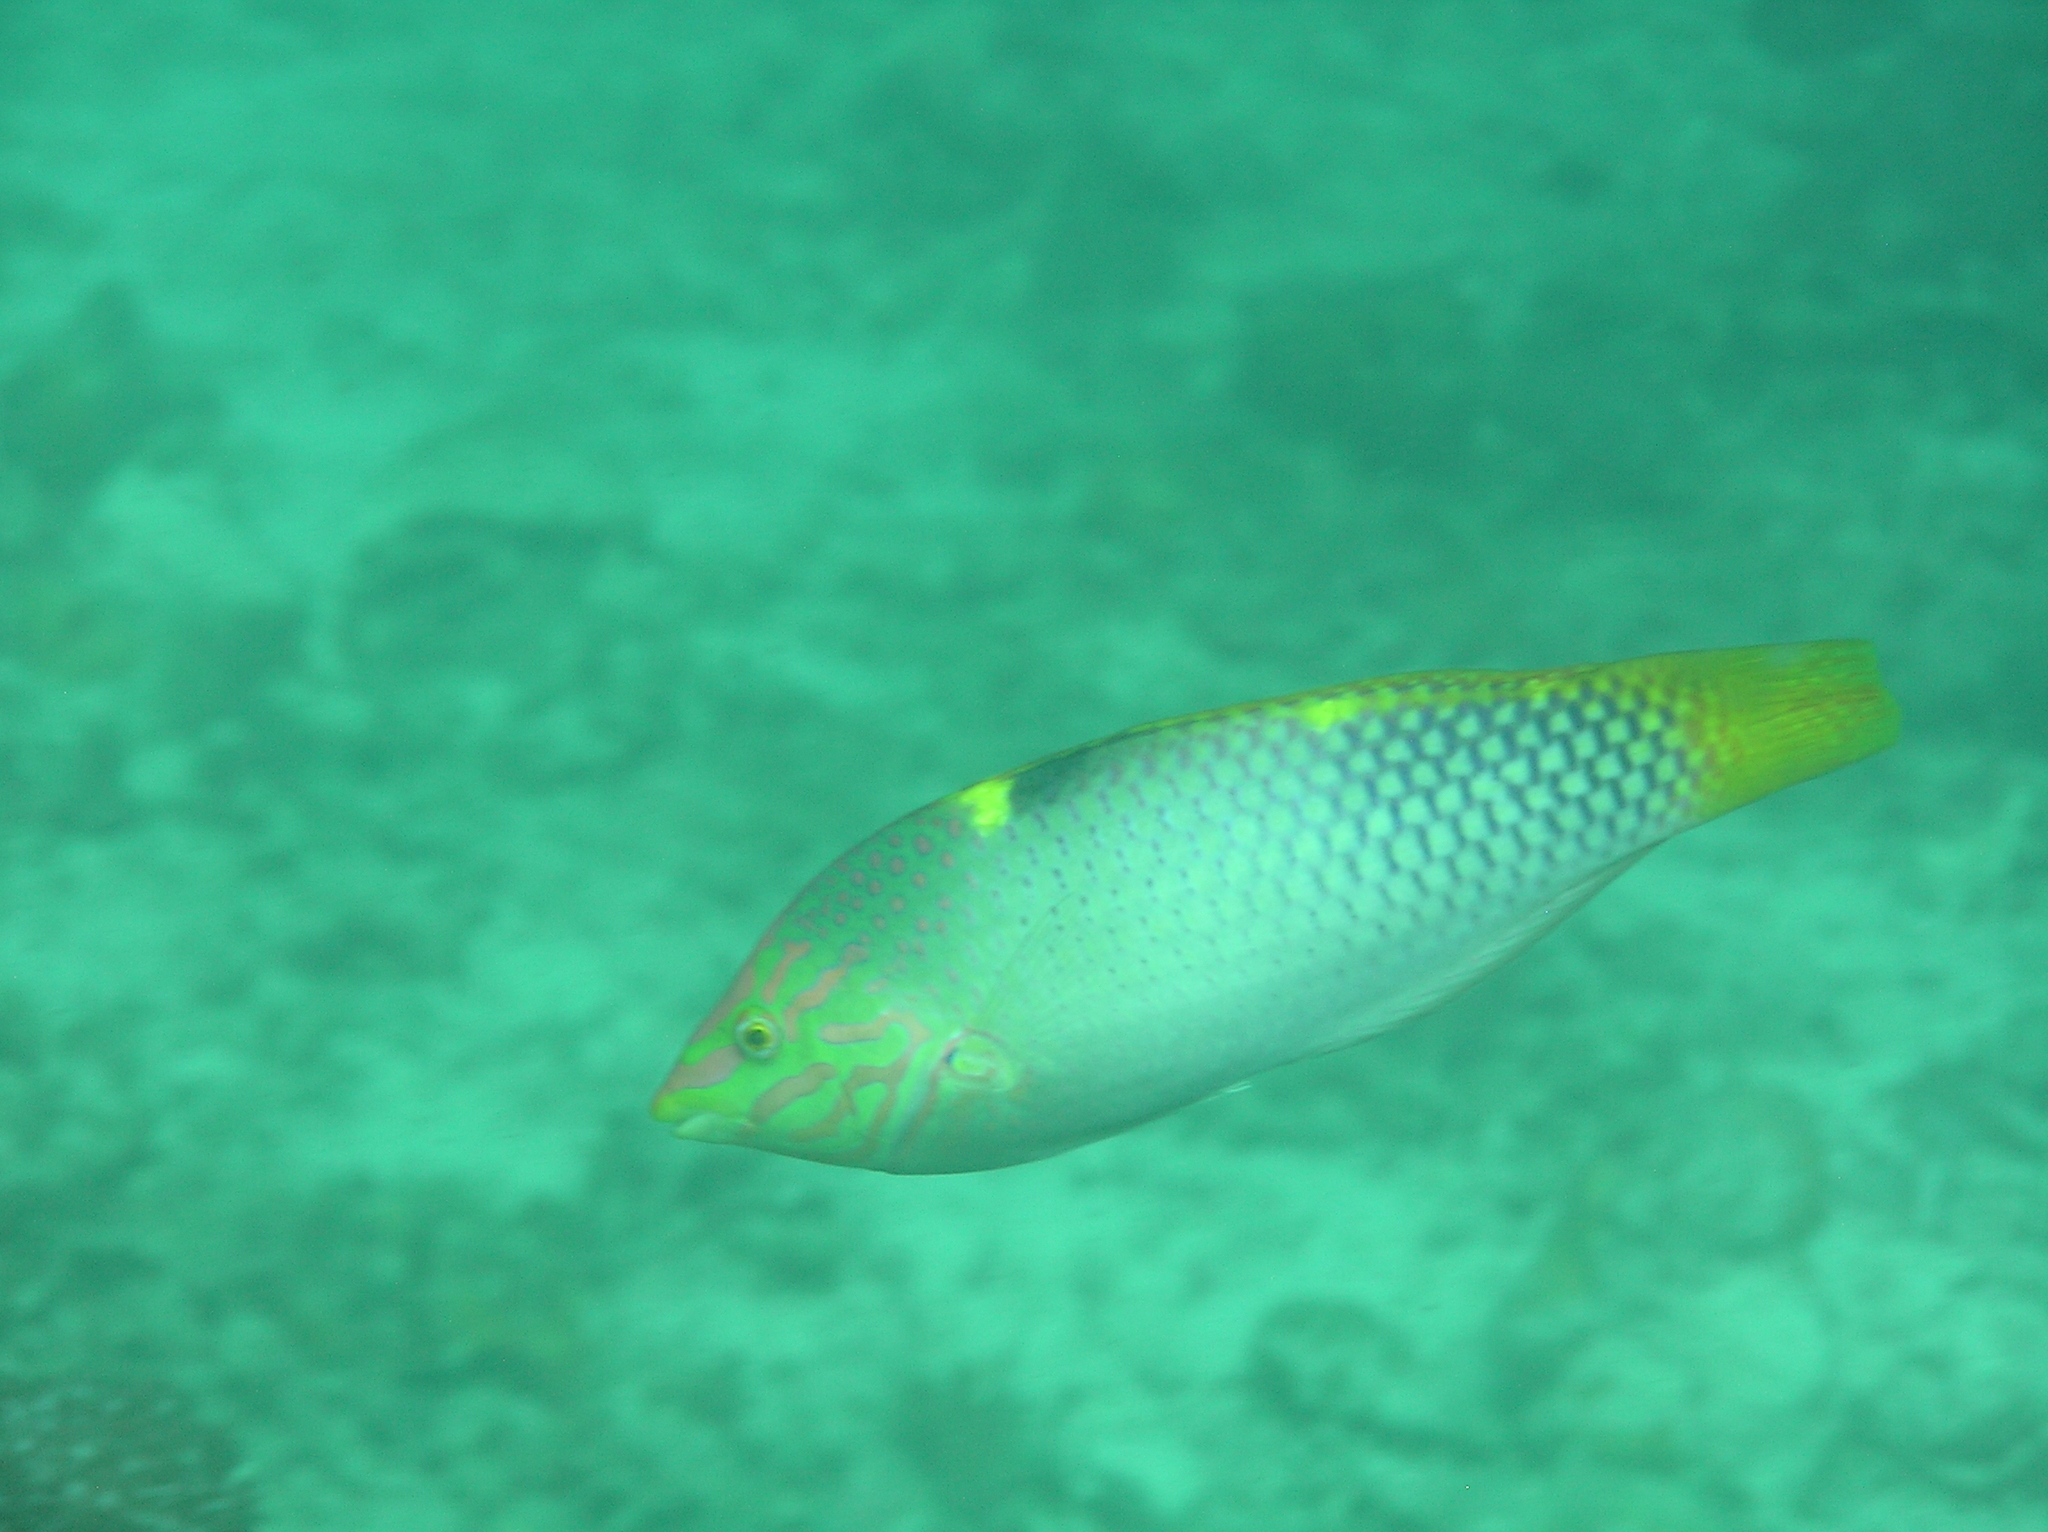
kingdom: Animalia
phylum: Chordata
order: Perciformes
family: Labridae
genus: Halichoeres
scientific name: Halichoeres hortulanus
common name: Checkerboard wrasse
